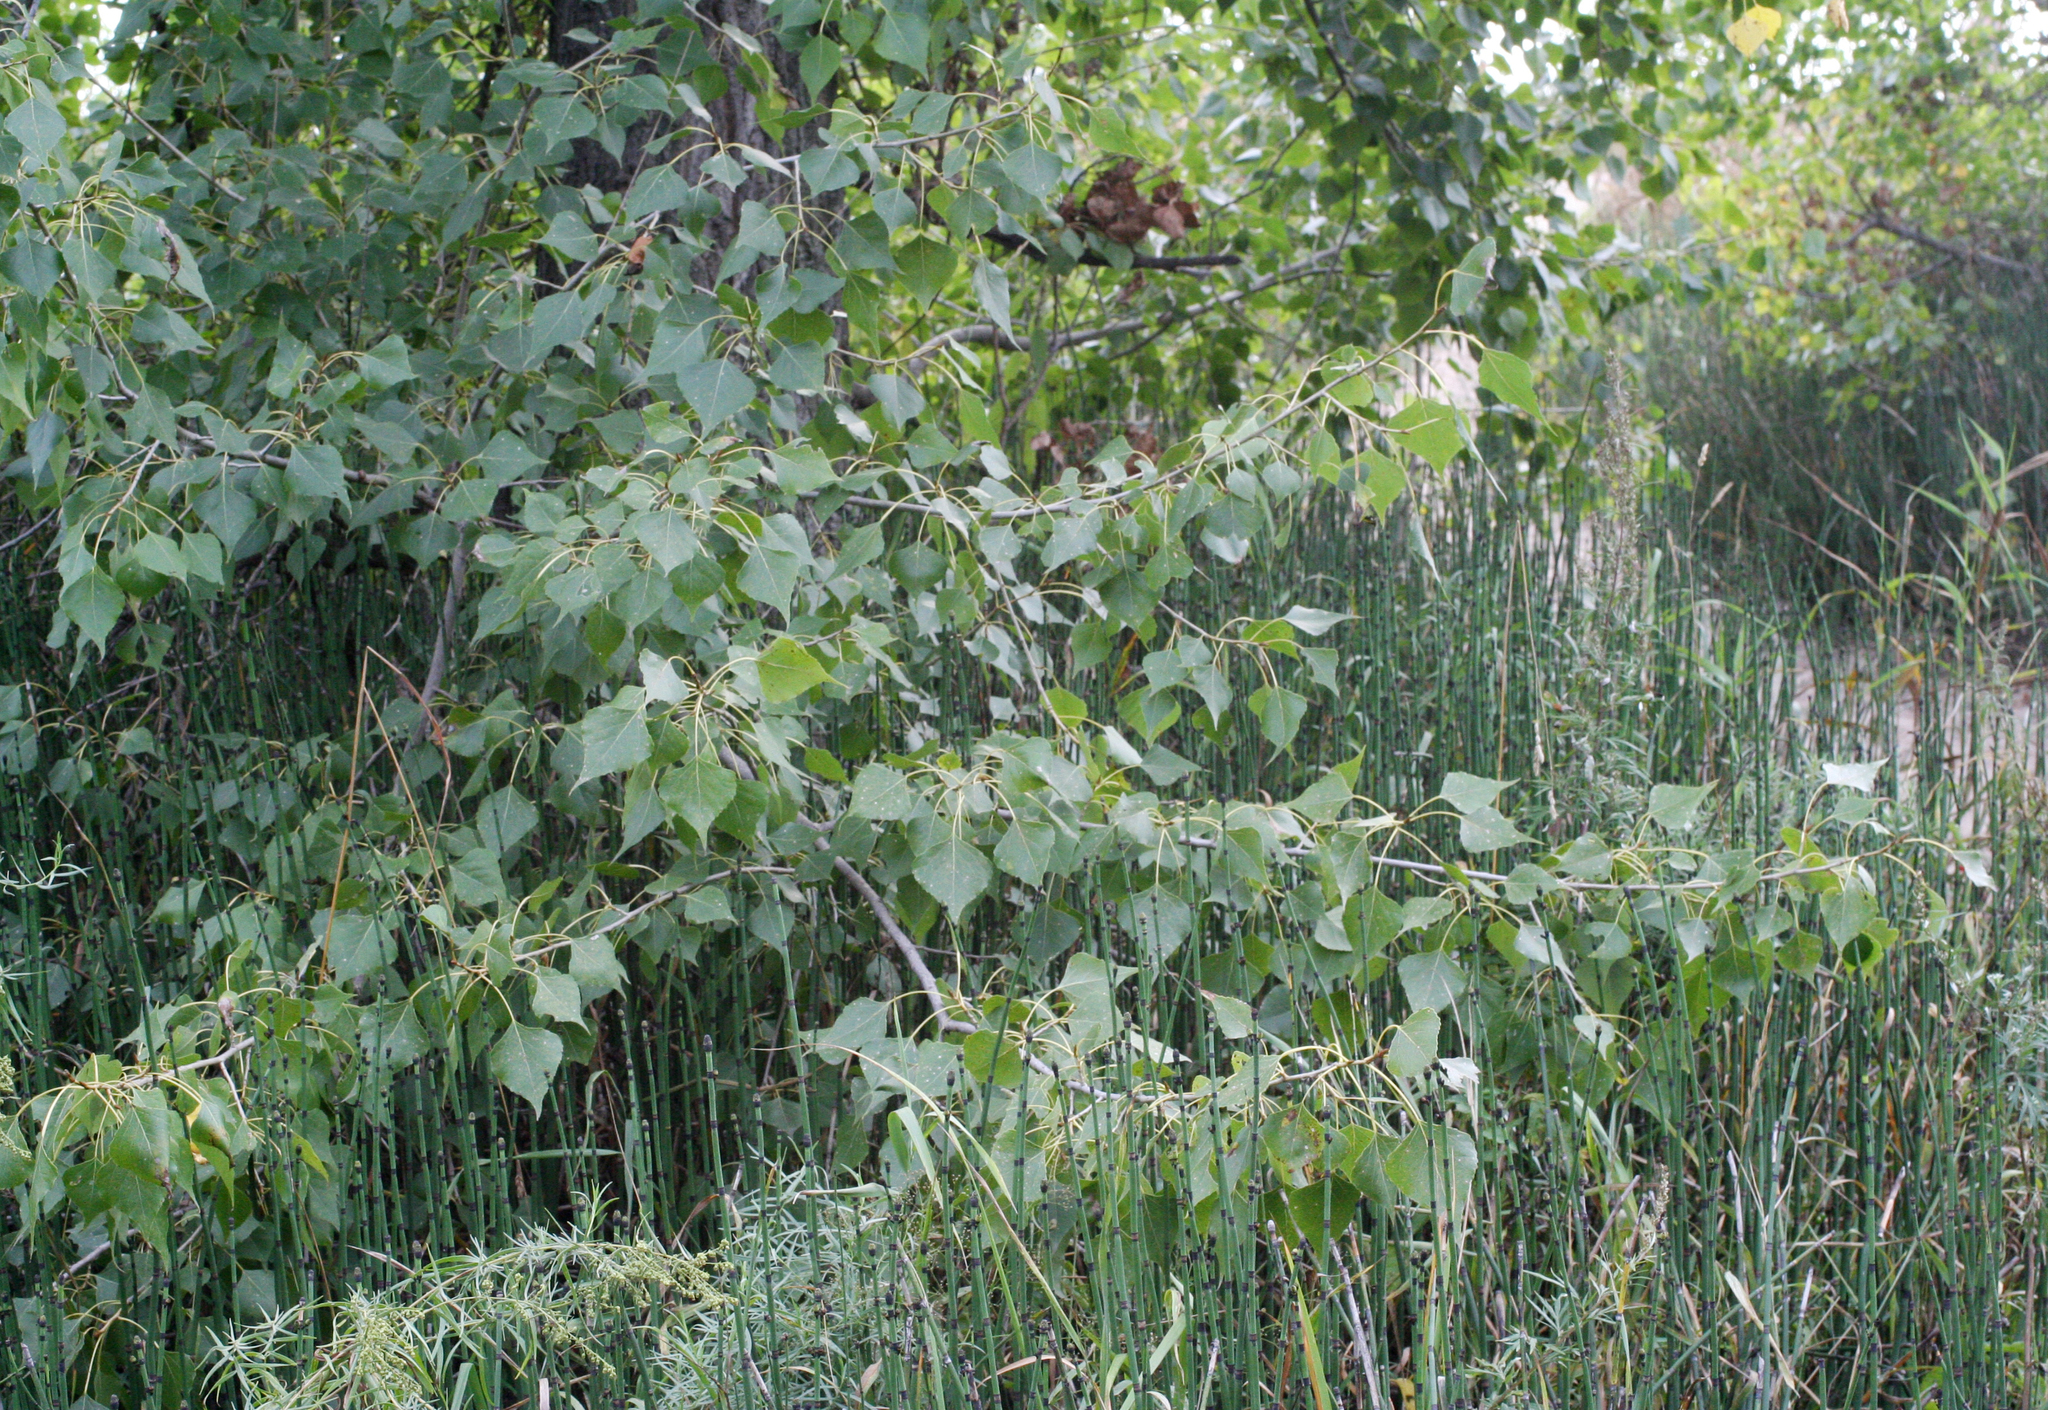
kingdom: Plantae
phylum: Tracheophyta
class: Magnoliopsida
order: Malpighiales
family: Salicaceae
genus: Populus
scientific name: Populus nigra
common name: Black poplar
